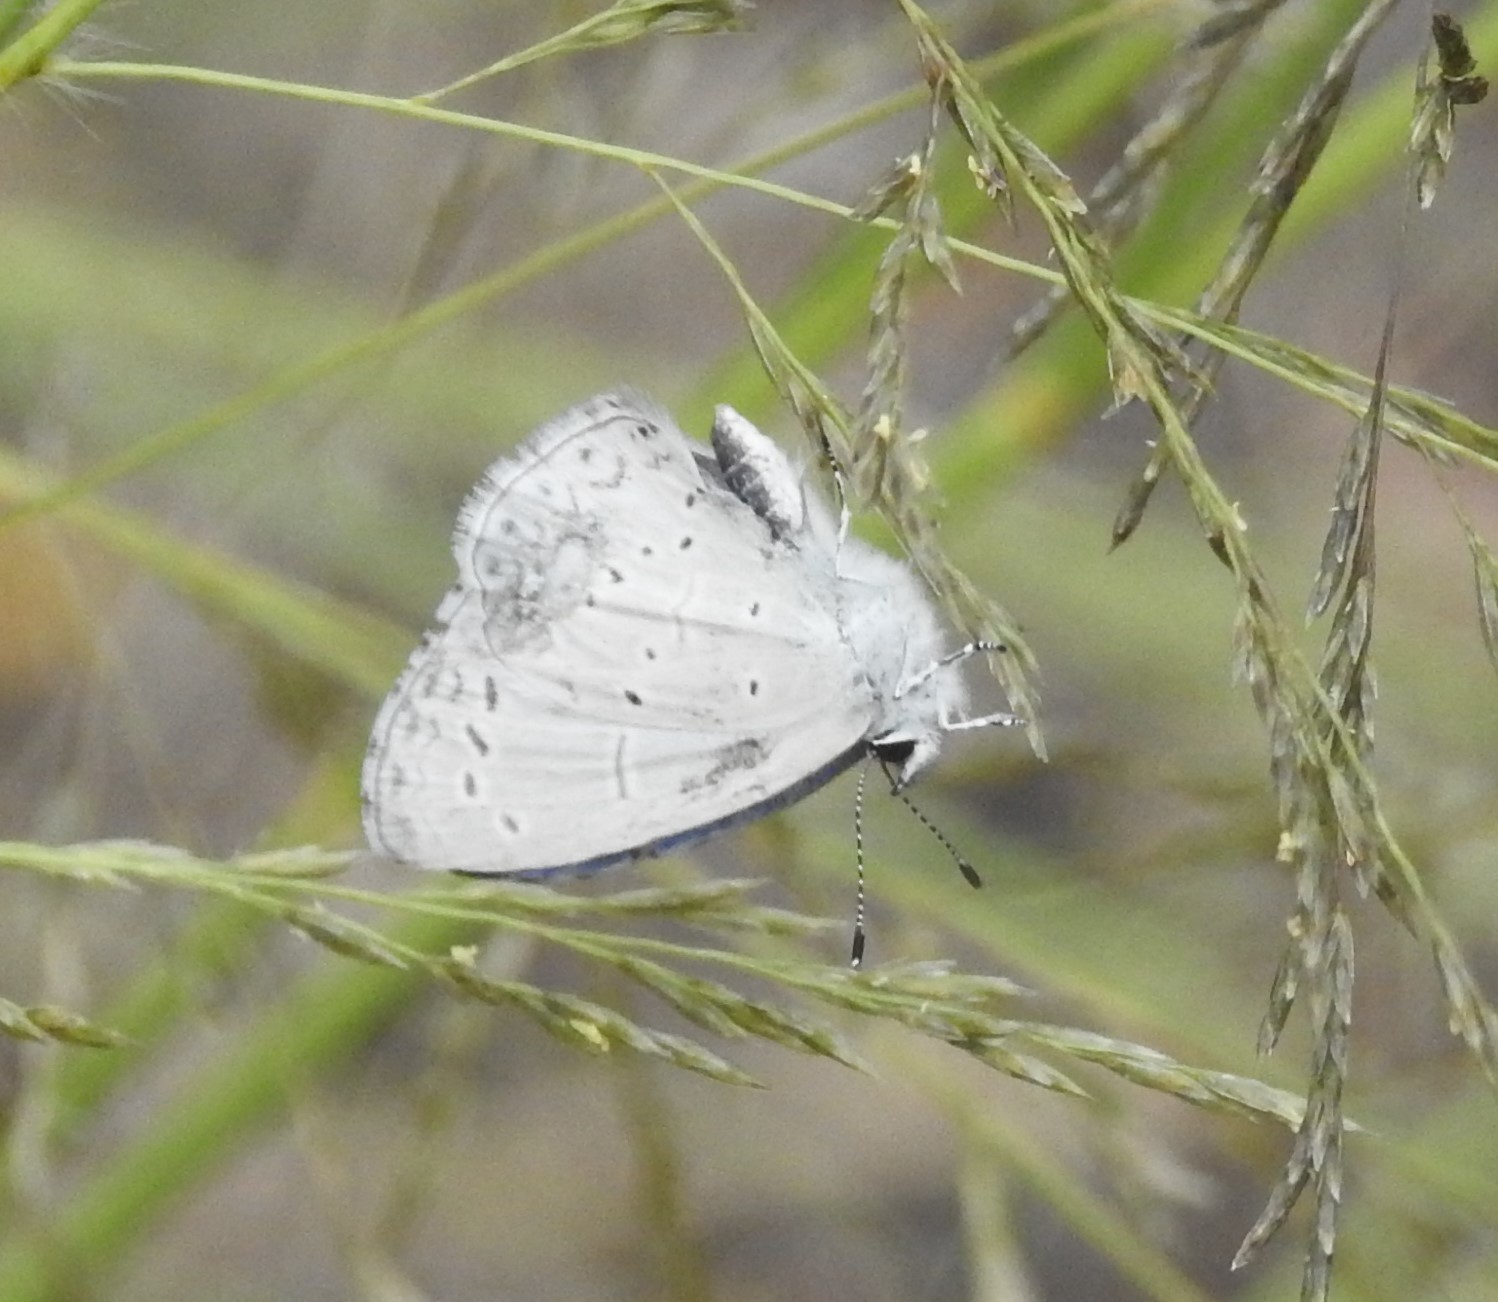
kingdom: Animalia
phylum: Arthropoda
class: Insecta
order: Lepidoptera
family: Lycaenidae
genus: Celastrina
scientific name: Celastrina ladon
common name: Spring azure
